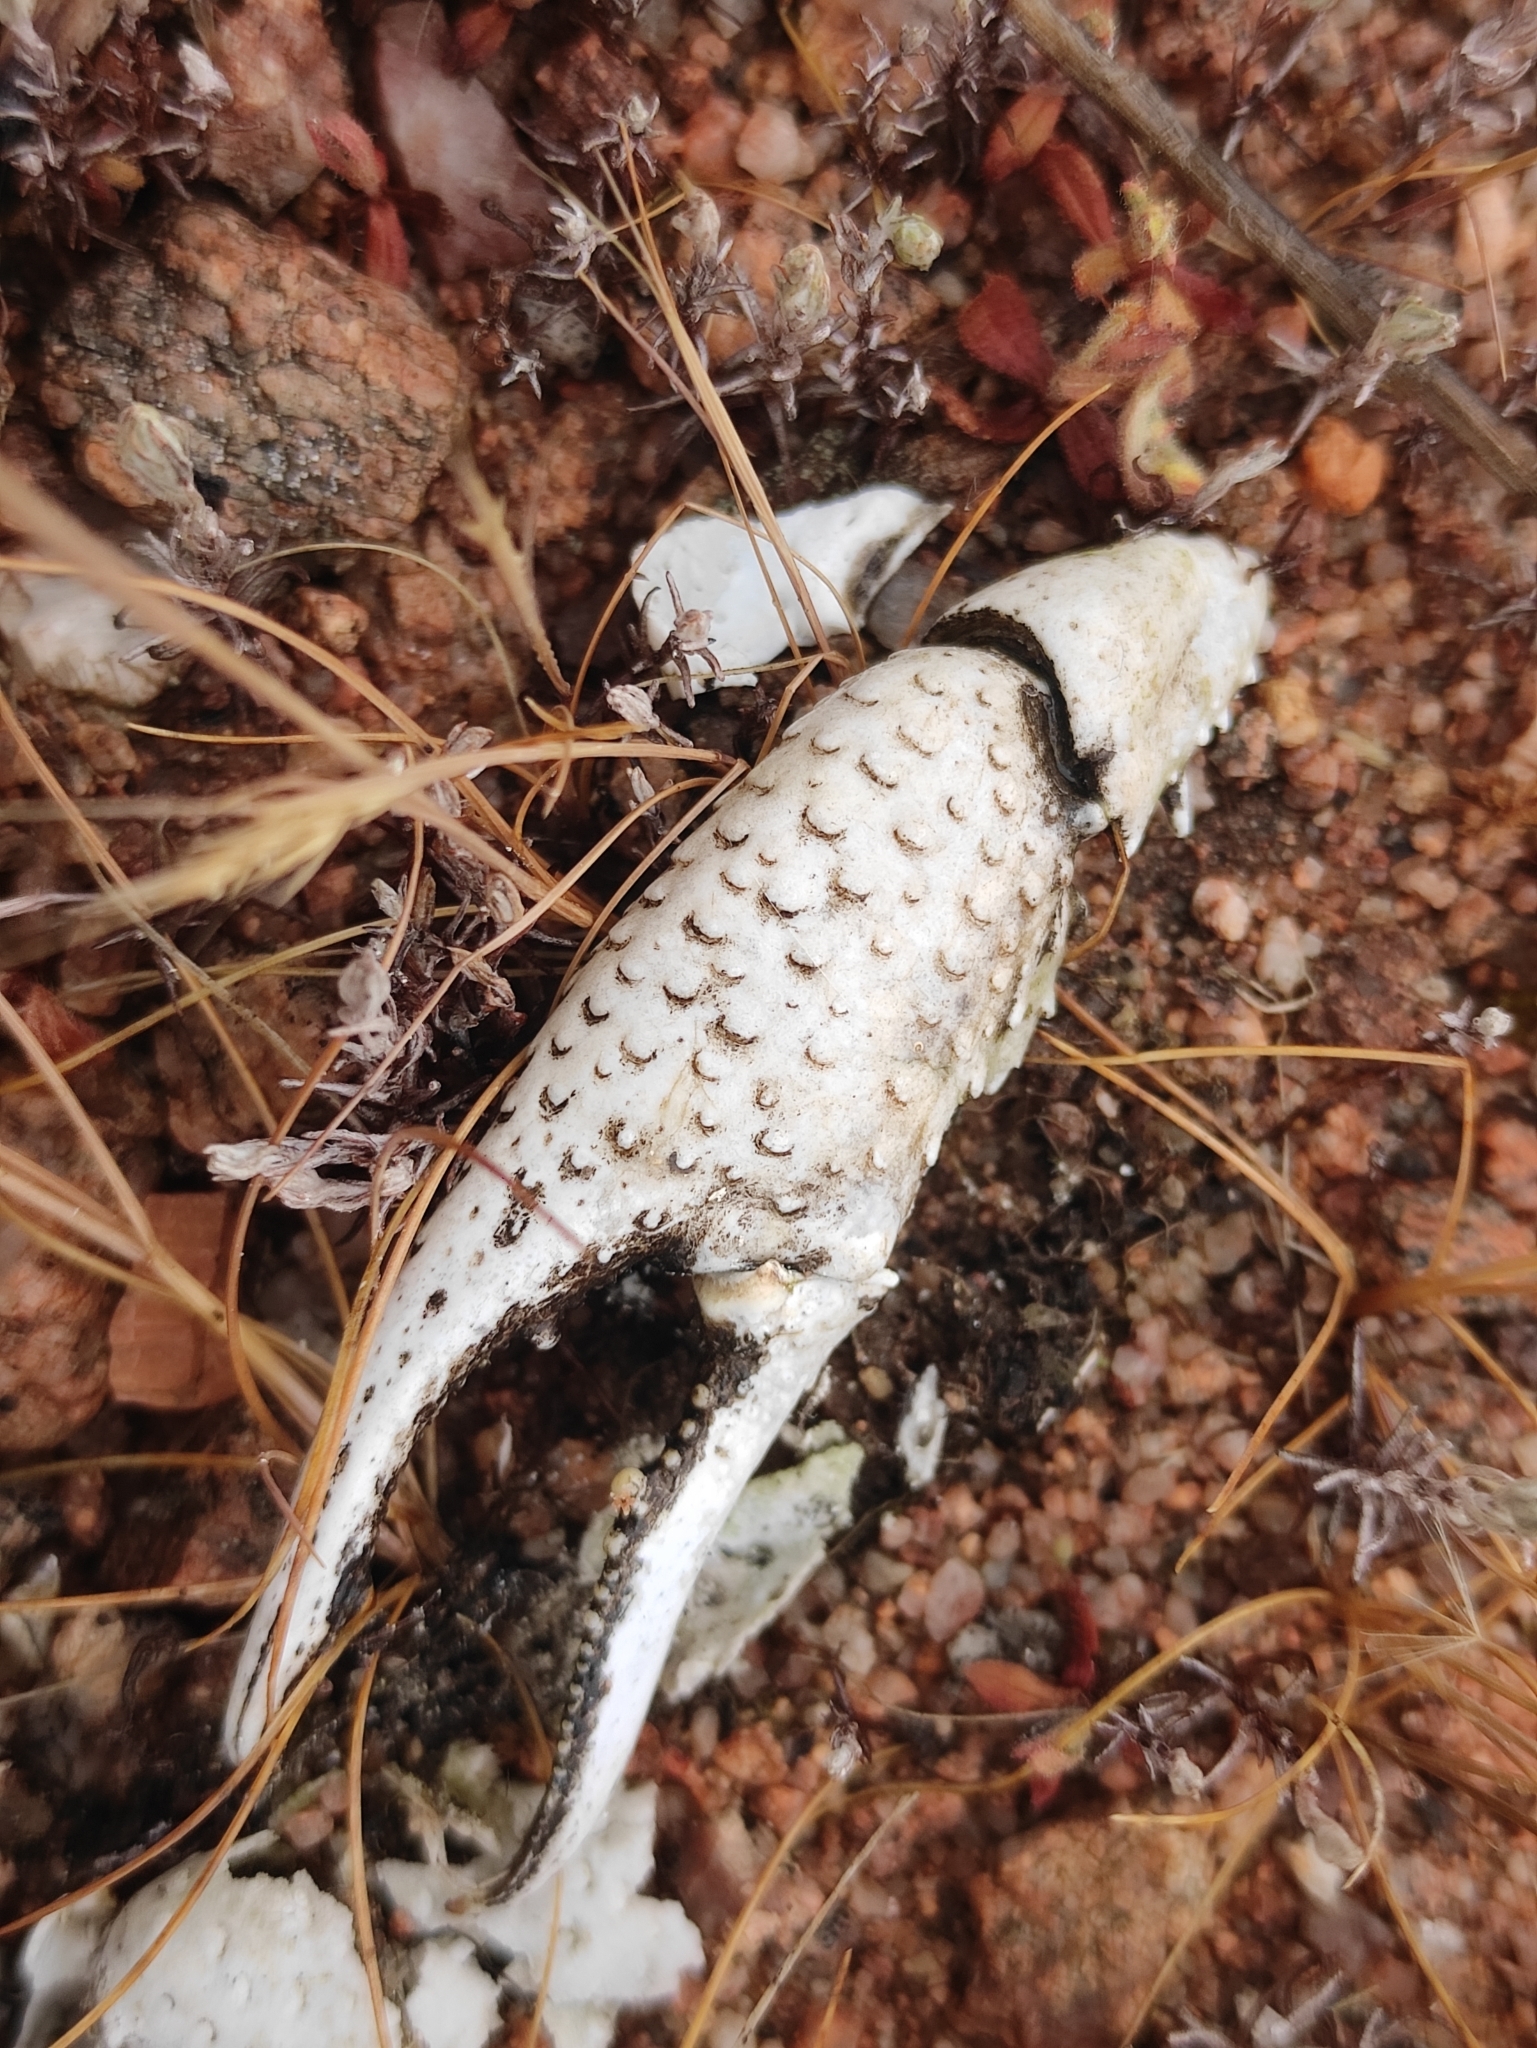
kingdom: Animalia
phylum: Arthropoda
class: Malacostraca
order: Decapoda
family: Cambaridae
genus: Procambarus
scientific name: Procambarus clarkii
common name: Red swamp crayfish
